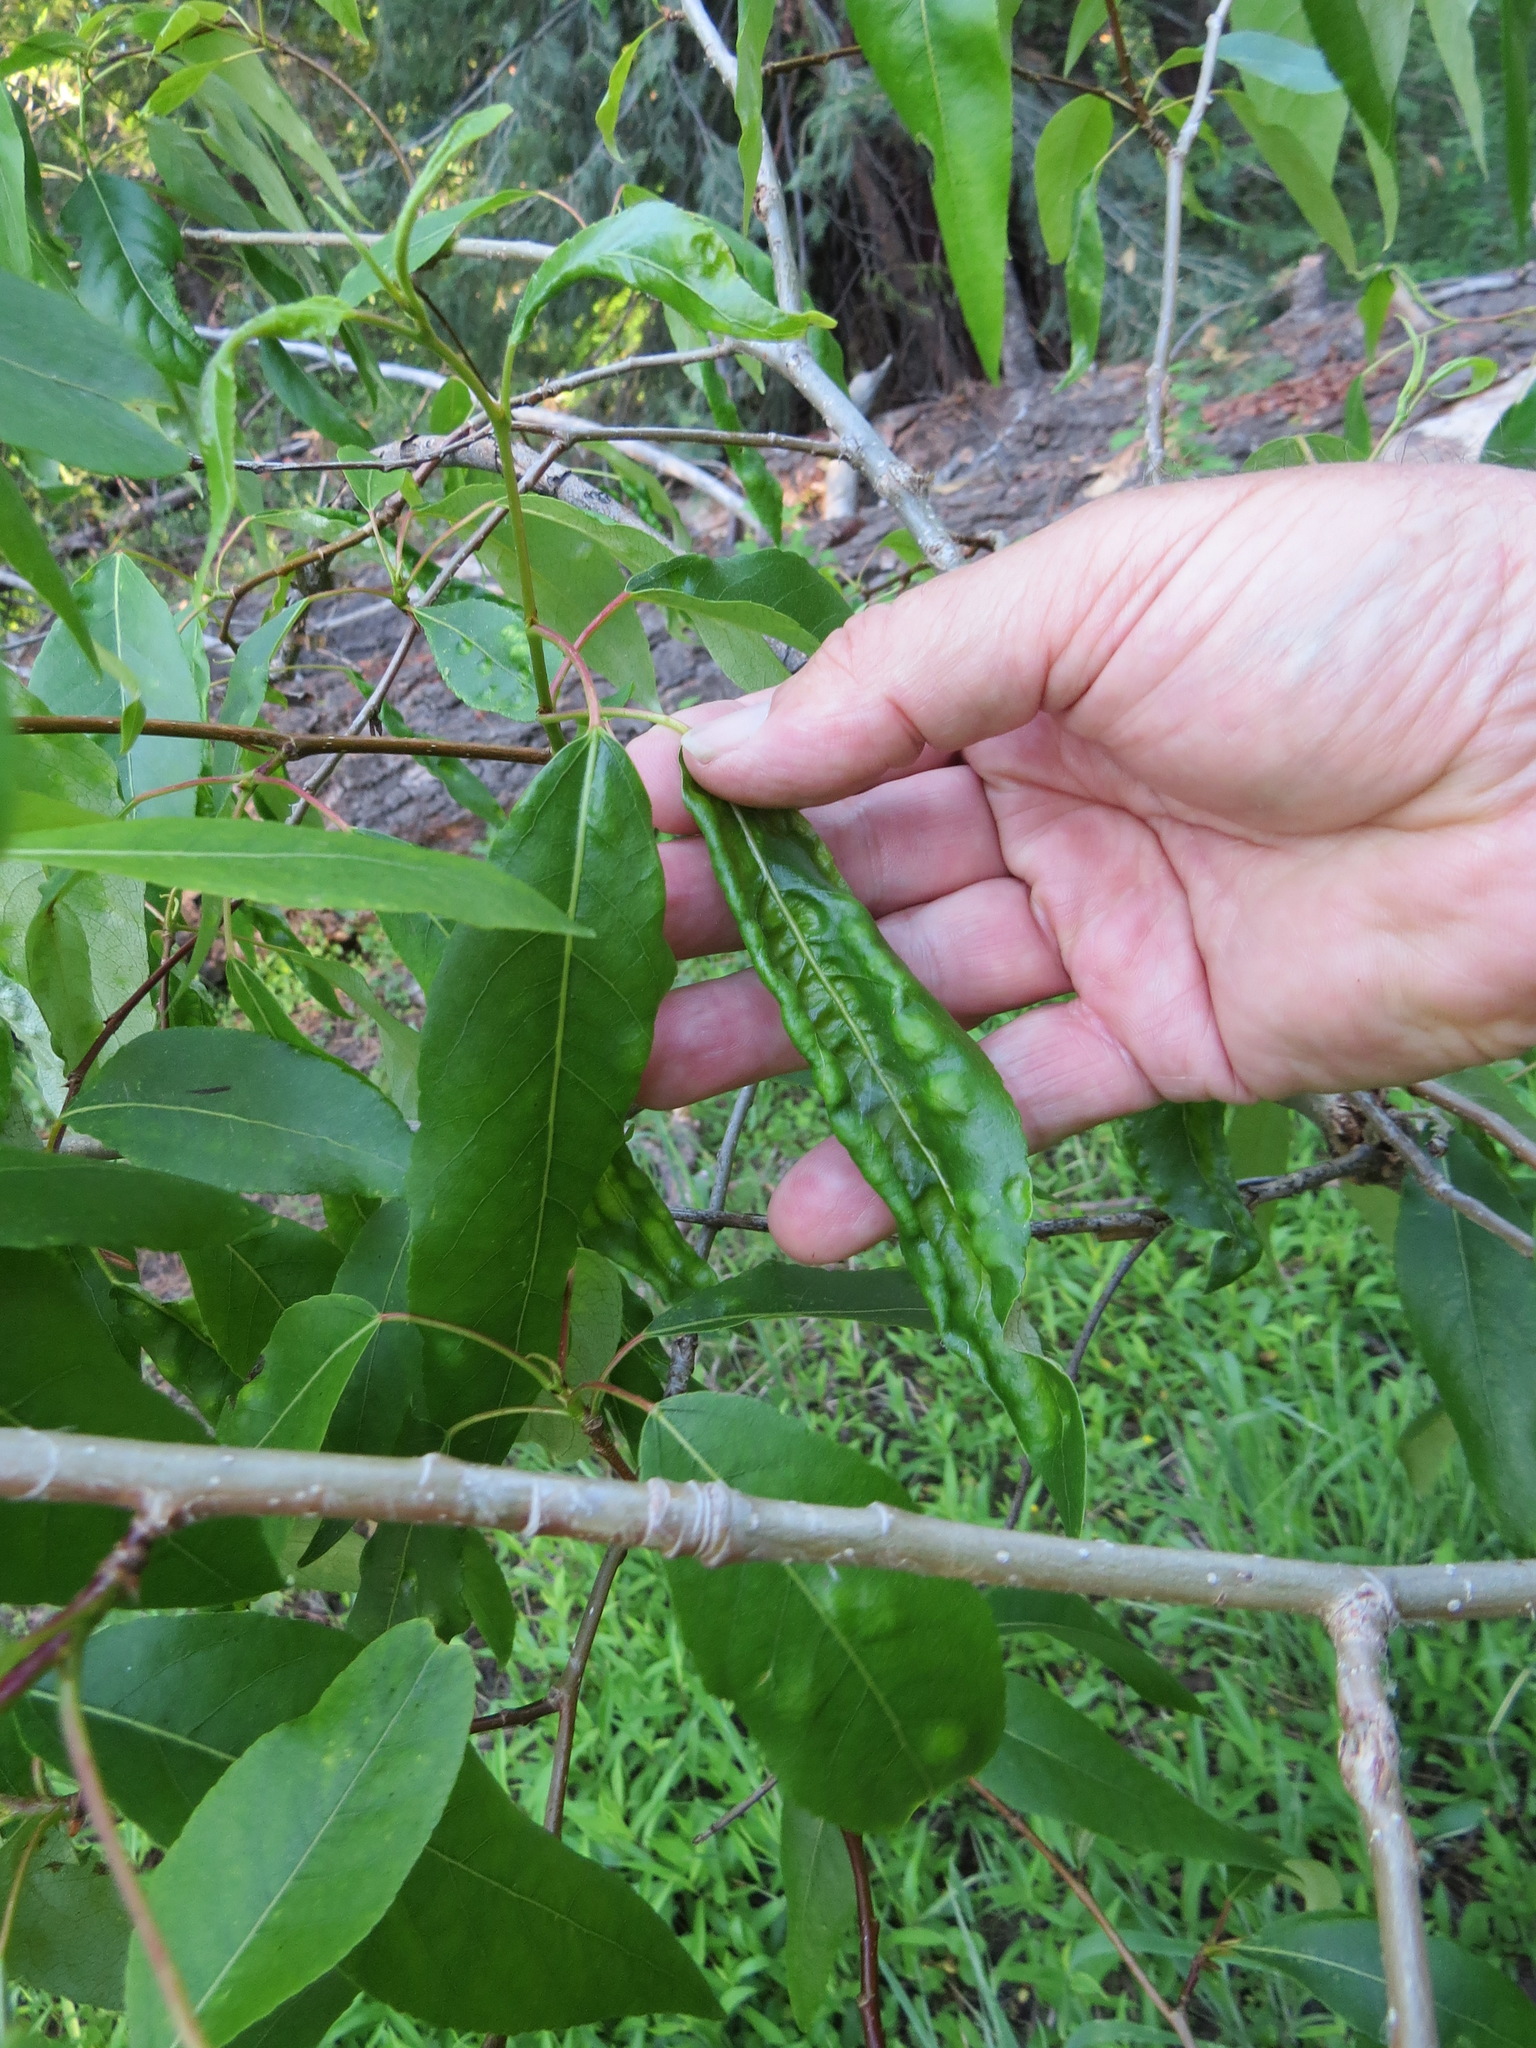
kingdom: Fungi
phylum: Ascomycota
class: Taphrinomycetes
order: Taphrinales
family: Taphrinaceae
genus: Taphrina
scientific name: Taphrina populi-salicis
